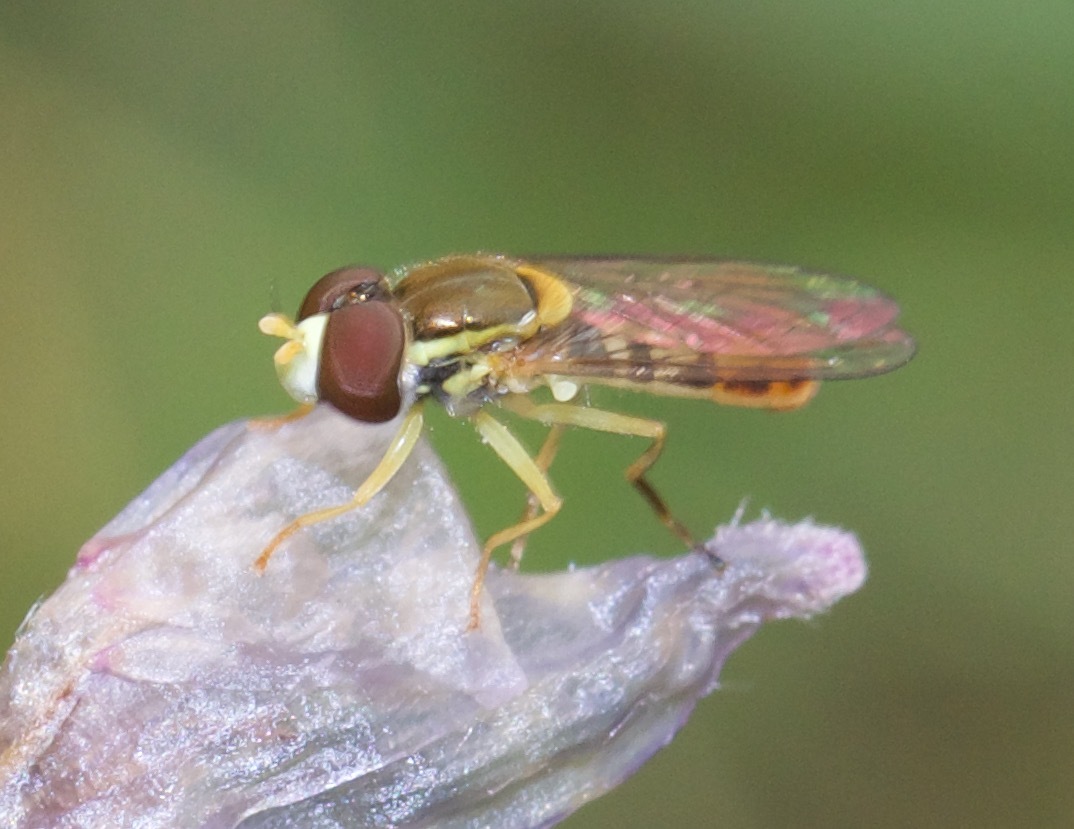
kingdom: Animalia
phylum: Arthropoda
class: Insecta
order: Diptera
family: Syrphidae
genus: Toxomerus
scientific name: Toxomerus marginatus
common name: Syrphid fly
